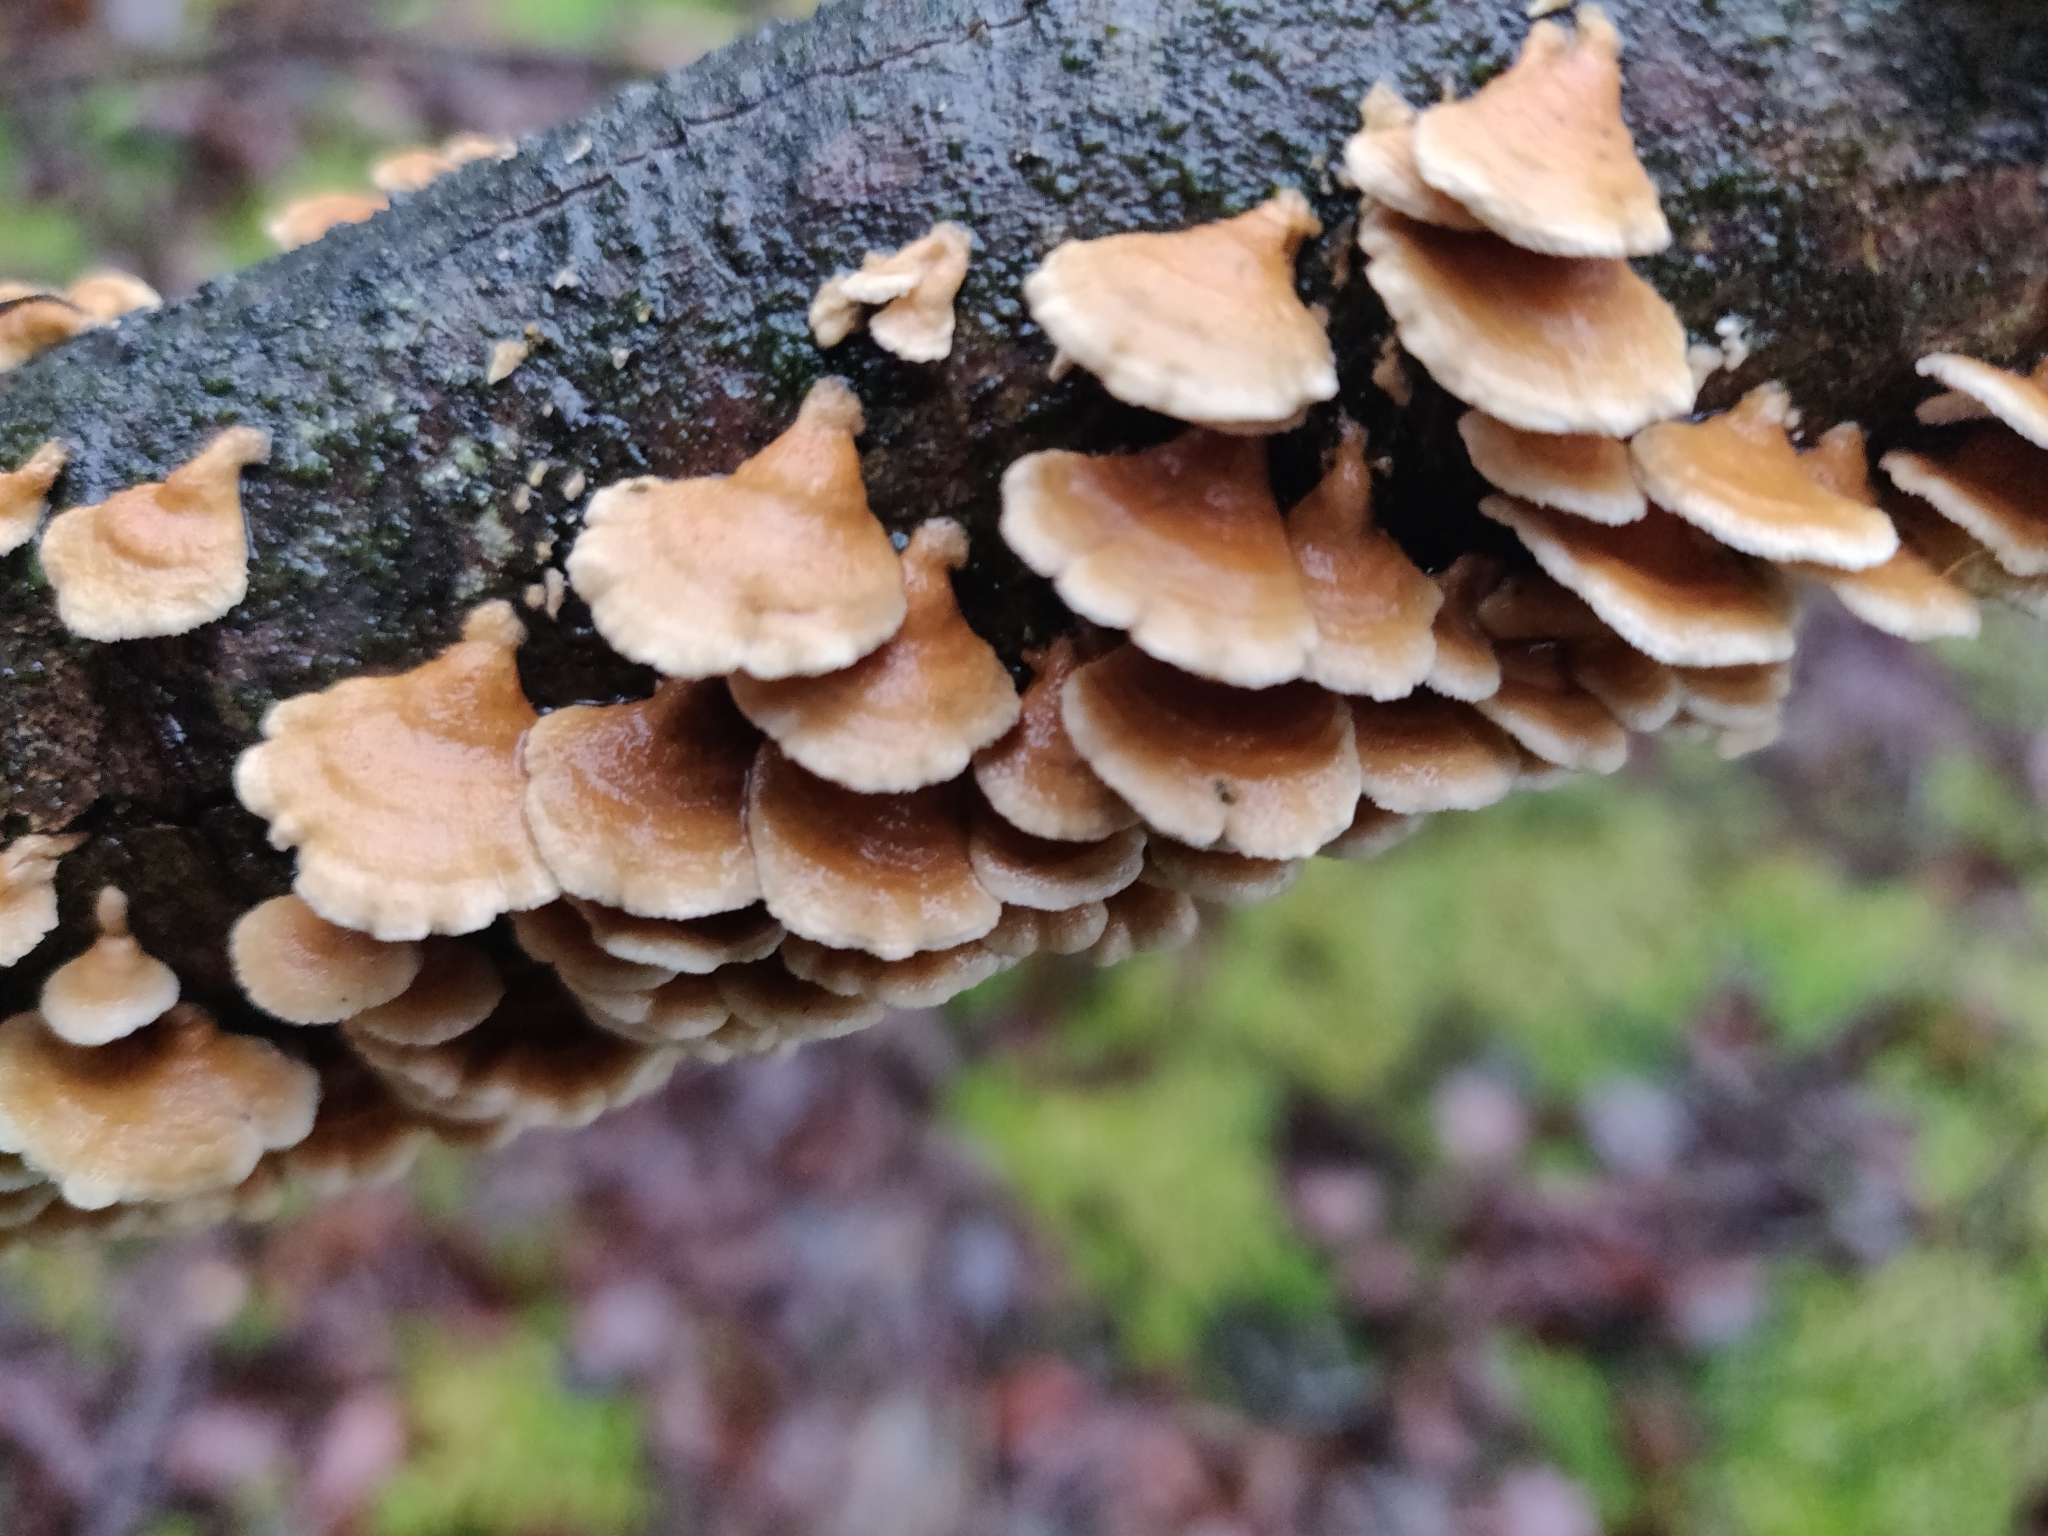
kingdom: Fungi
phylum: Basidiomycota
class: Agaricomycetes
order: Amylocorticiales
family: Amylocorticiaceae
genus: Plicaturopsis
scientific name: Plicaturopsis crispa
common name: Crimped gill
